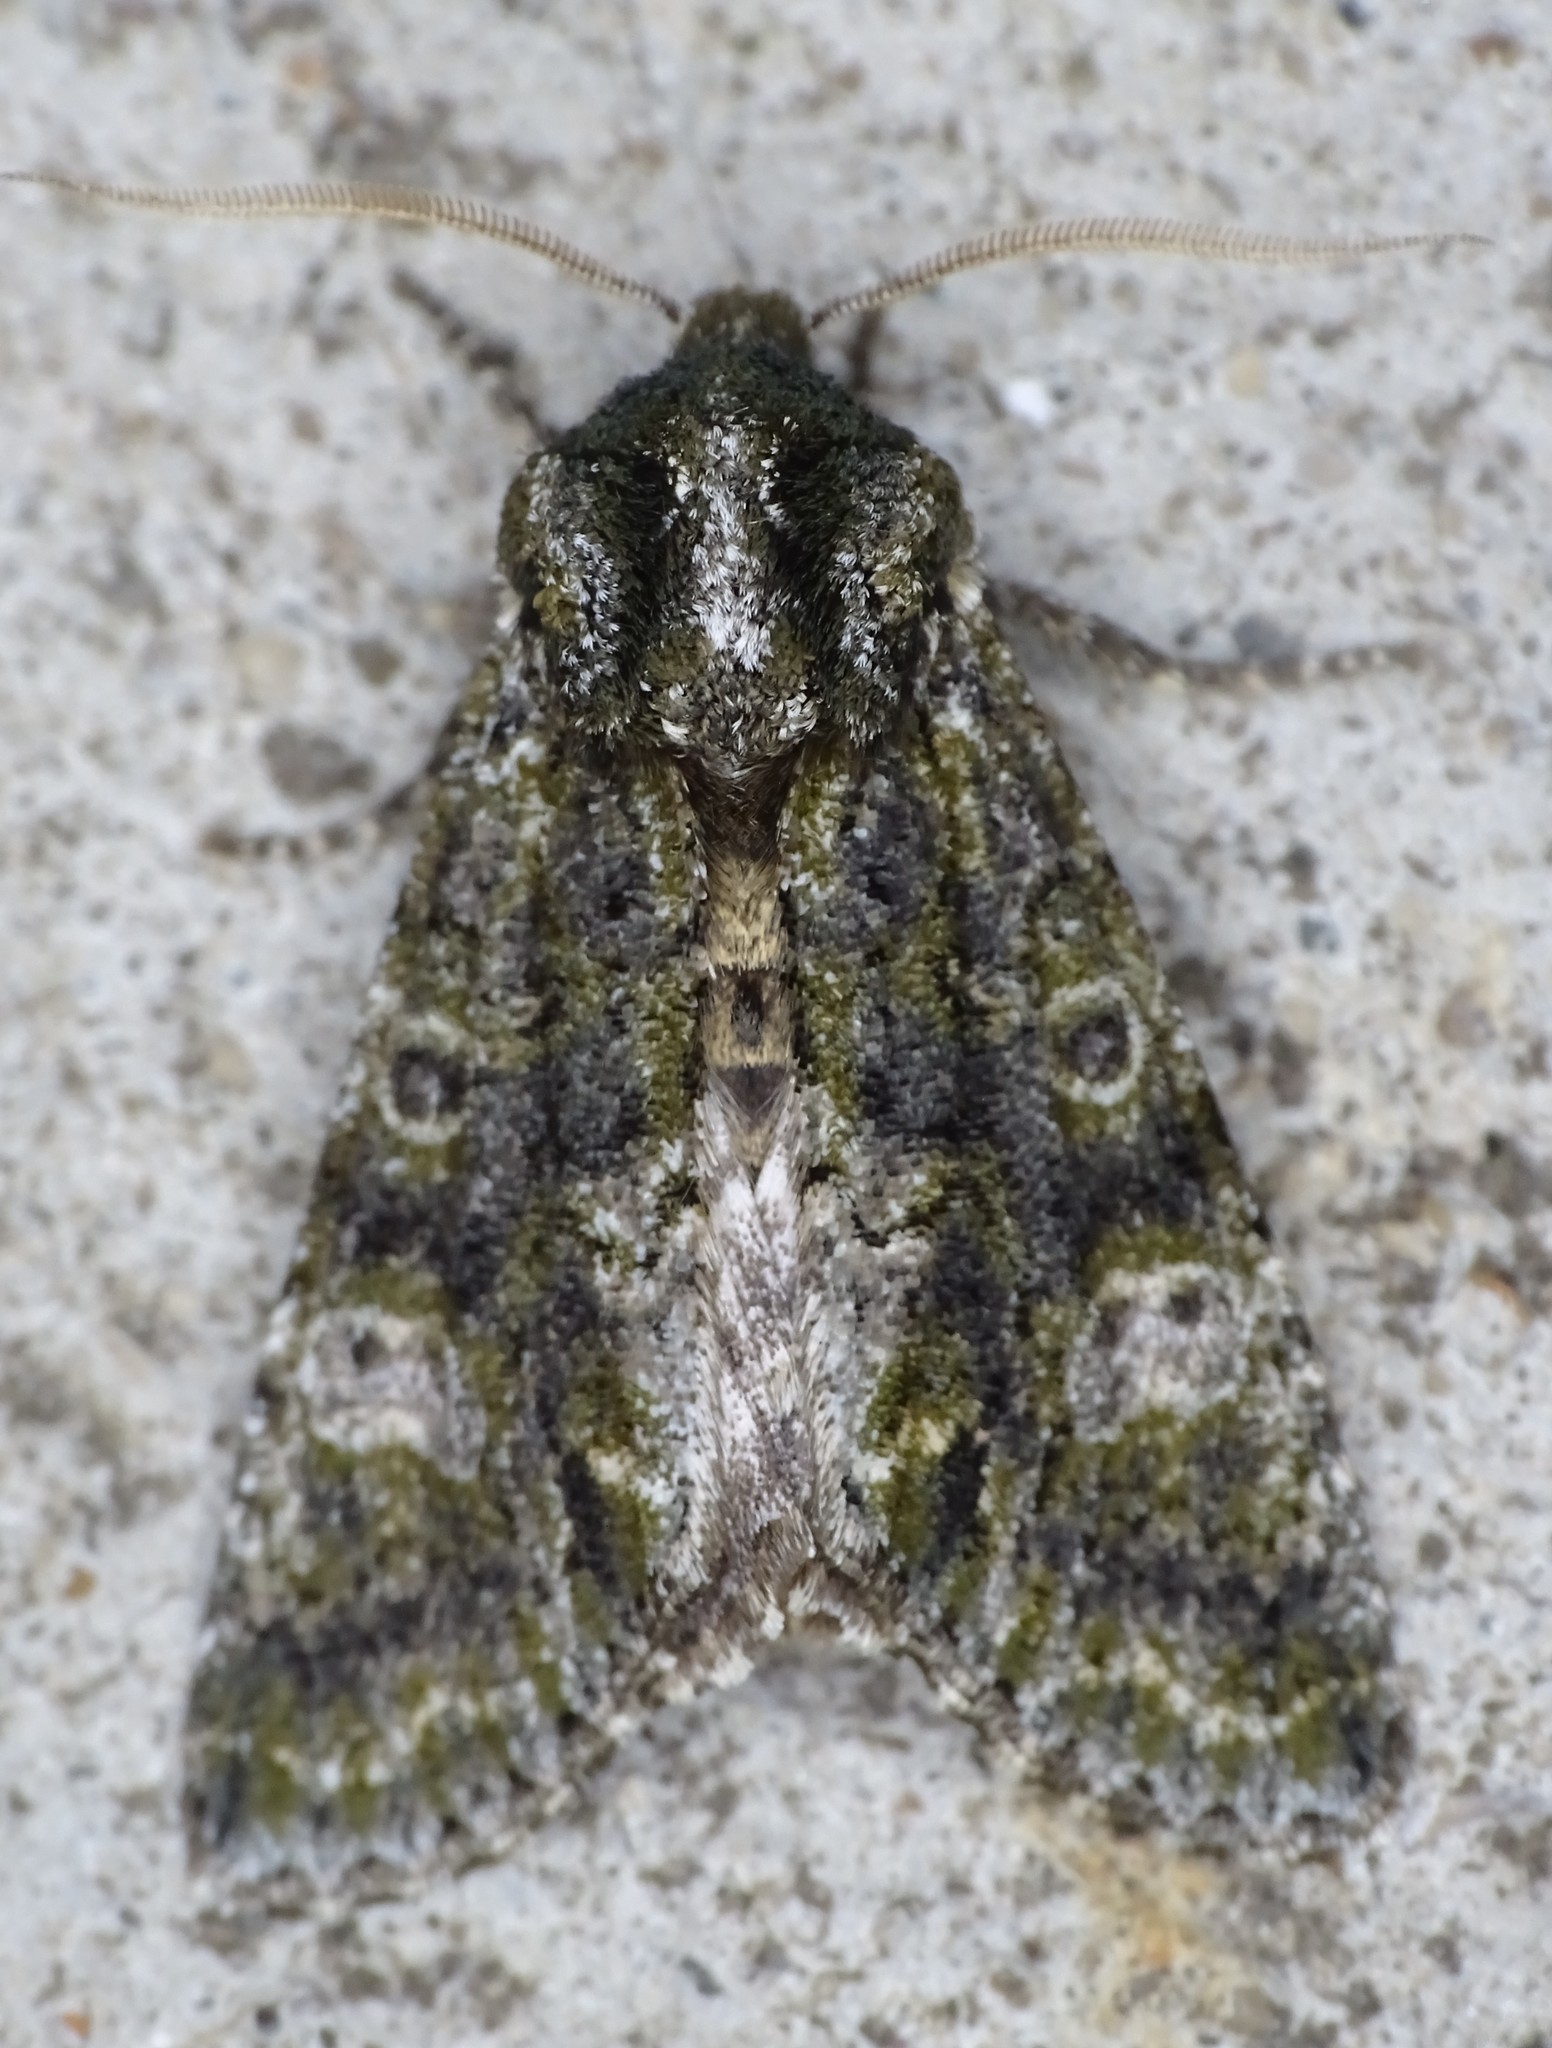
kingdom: Animalia
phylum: Arthropoda
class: Insecta
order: Lepidoptera
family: Noctuidae
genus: Psaphida
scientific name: Psaphida grotei
